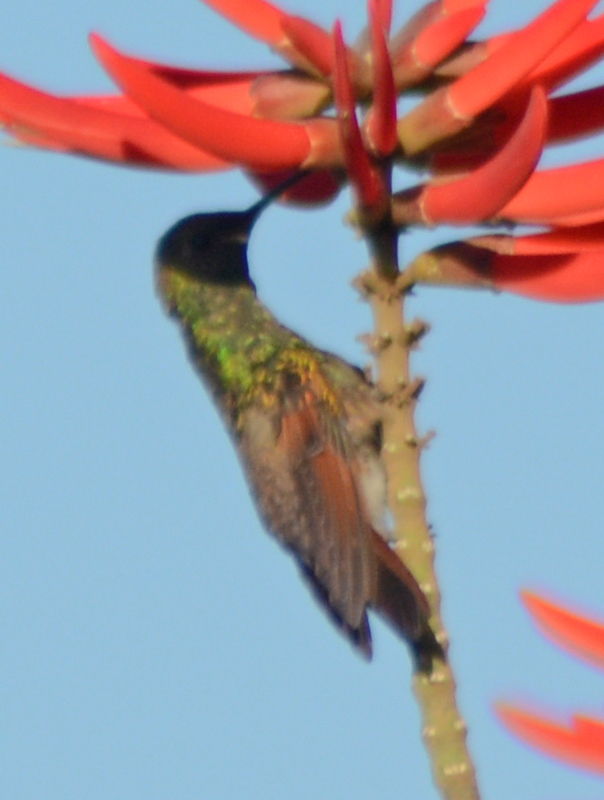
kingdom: Animalia
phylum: Chordata
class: Aves
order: Apodiformes
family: Trochilidae
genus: Saucerottia
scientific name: Saucerottia beryllina
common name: Berylline hummingbird
